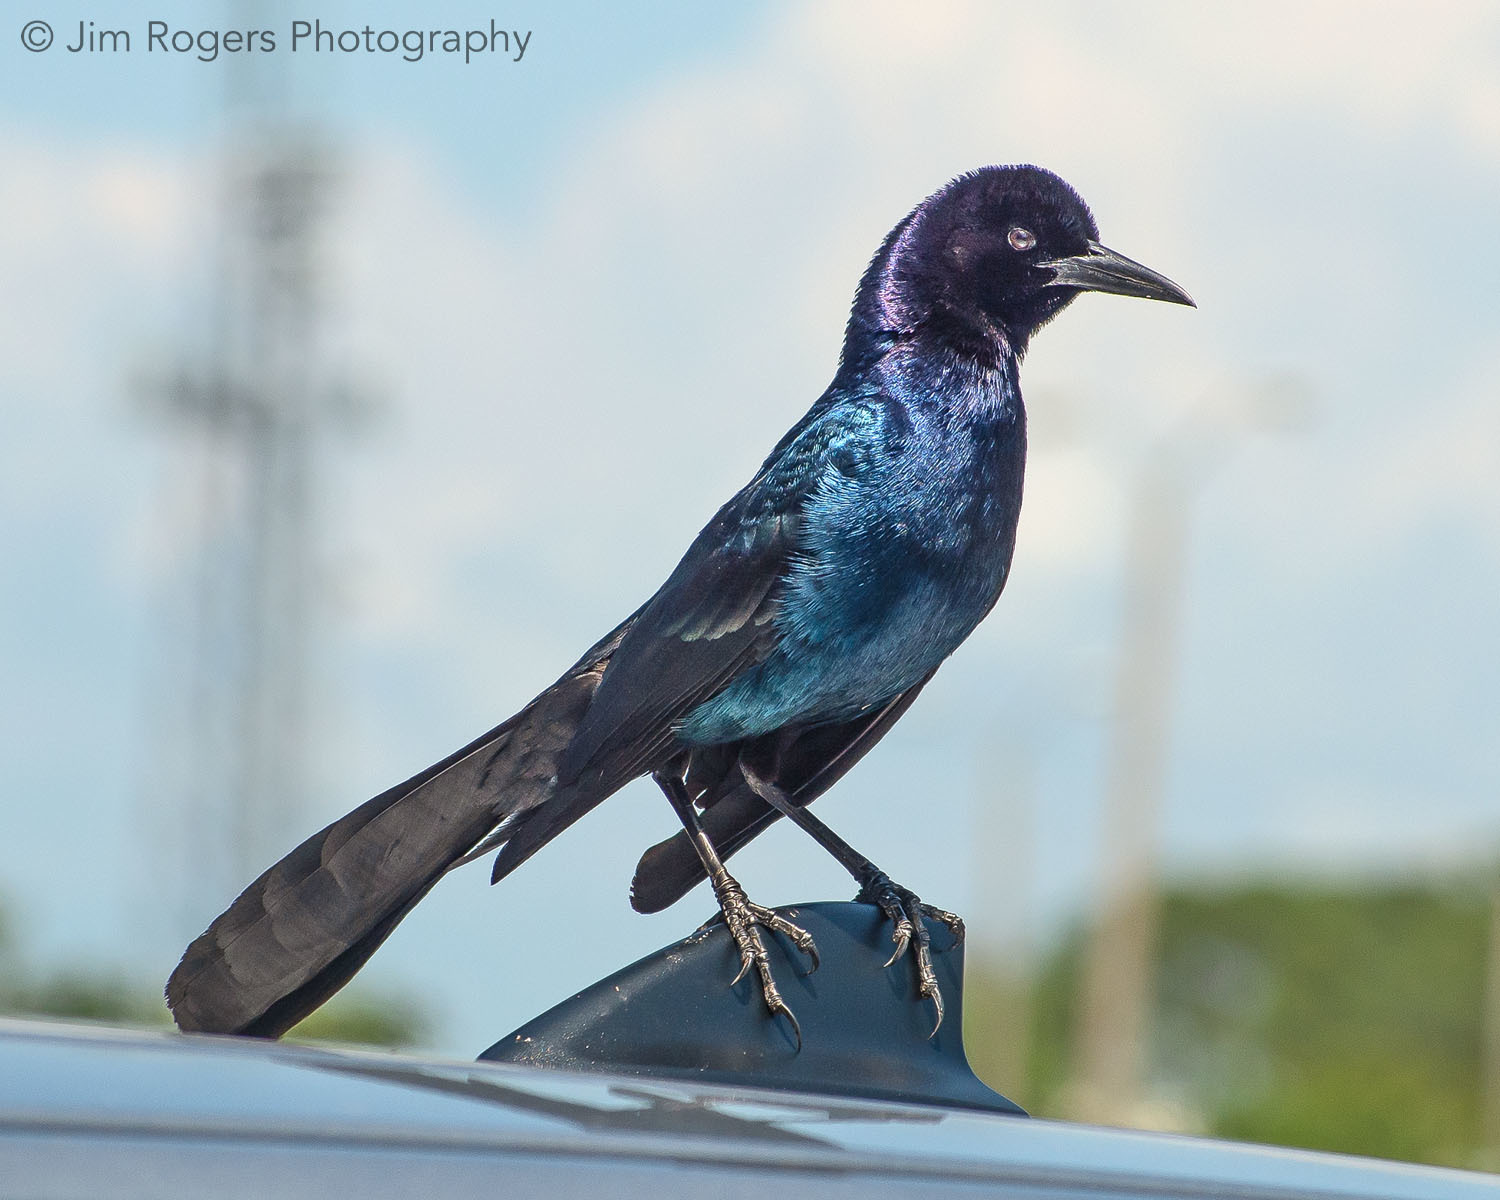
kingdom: Animalia
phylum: Chordata
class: Aves
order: Passeriformes
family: Icteridae
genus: Quiscalus
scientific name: Quiscalus major
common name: Boat-tailed grackle
